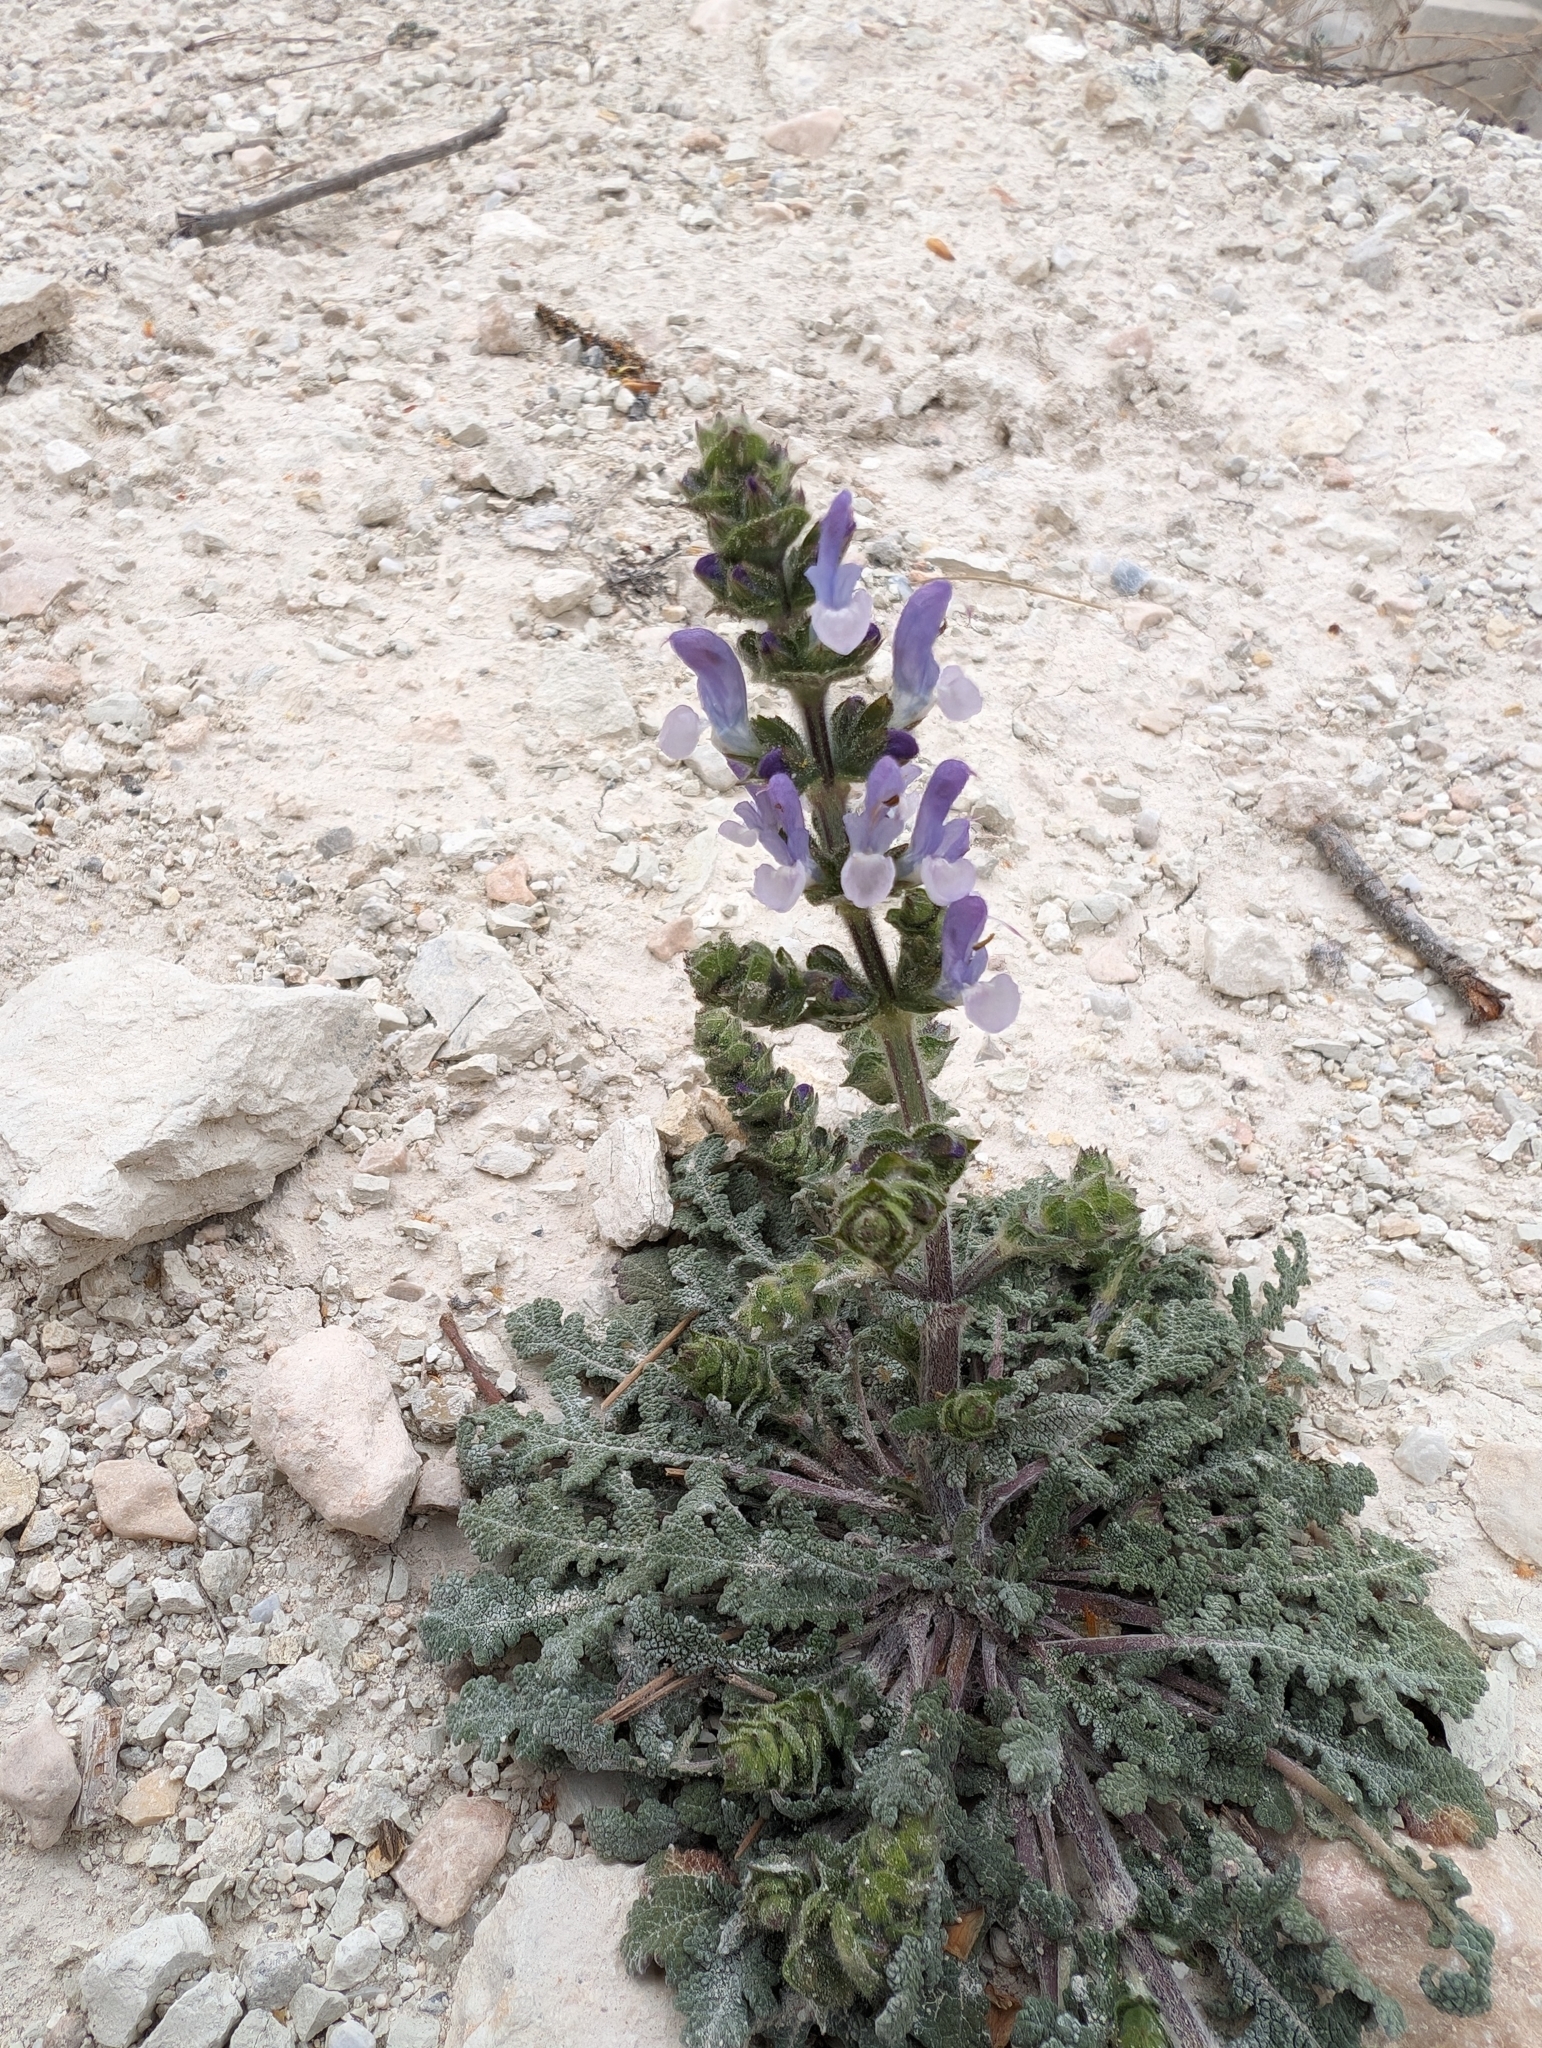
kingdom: Plantae
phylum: Tracheophyta
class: Magnoliopsida
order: Lamiales
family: Lamiaceae
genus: Salvia
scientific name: Salvia verbenaca
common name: Wild clary
